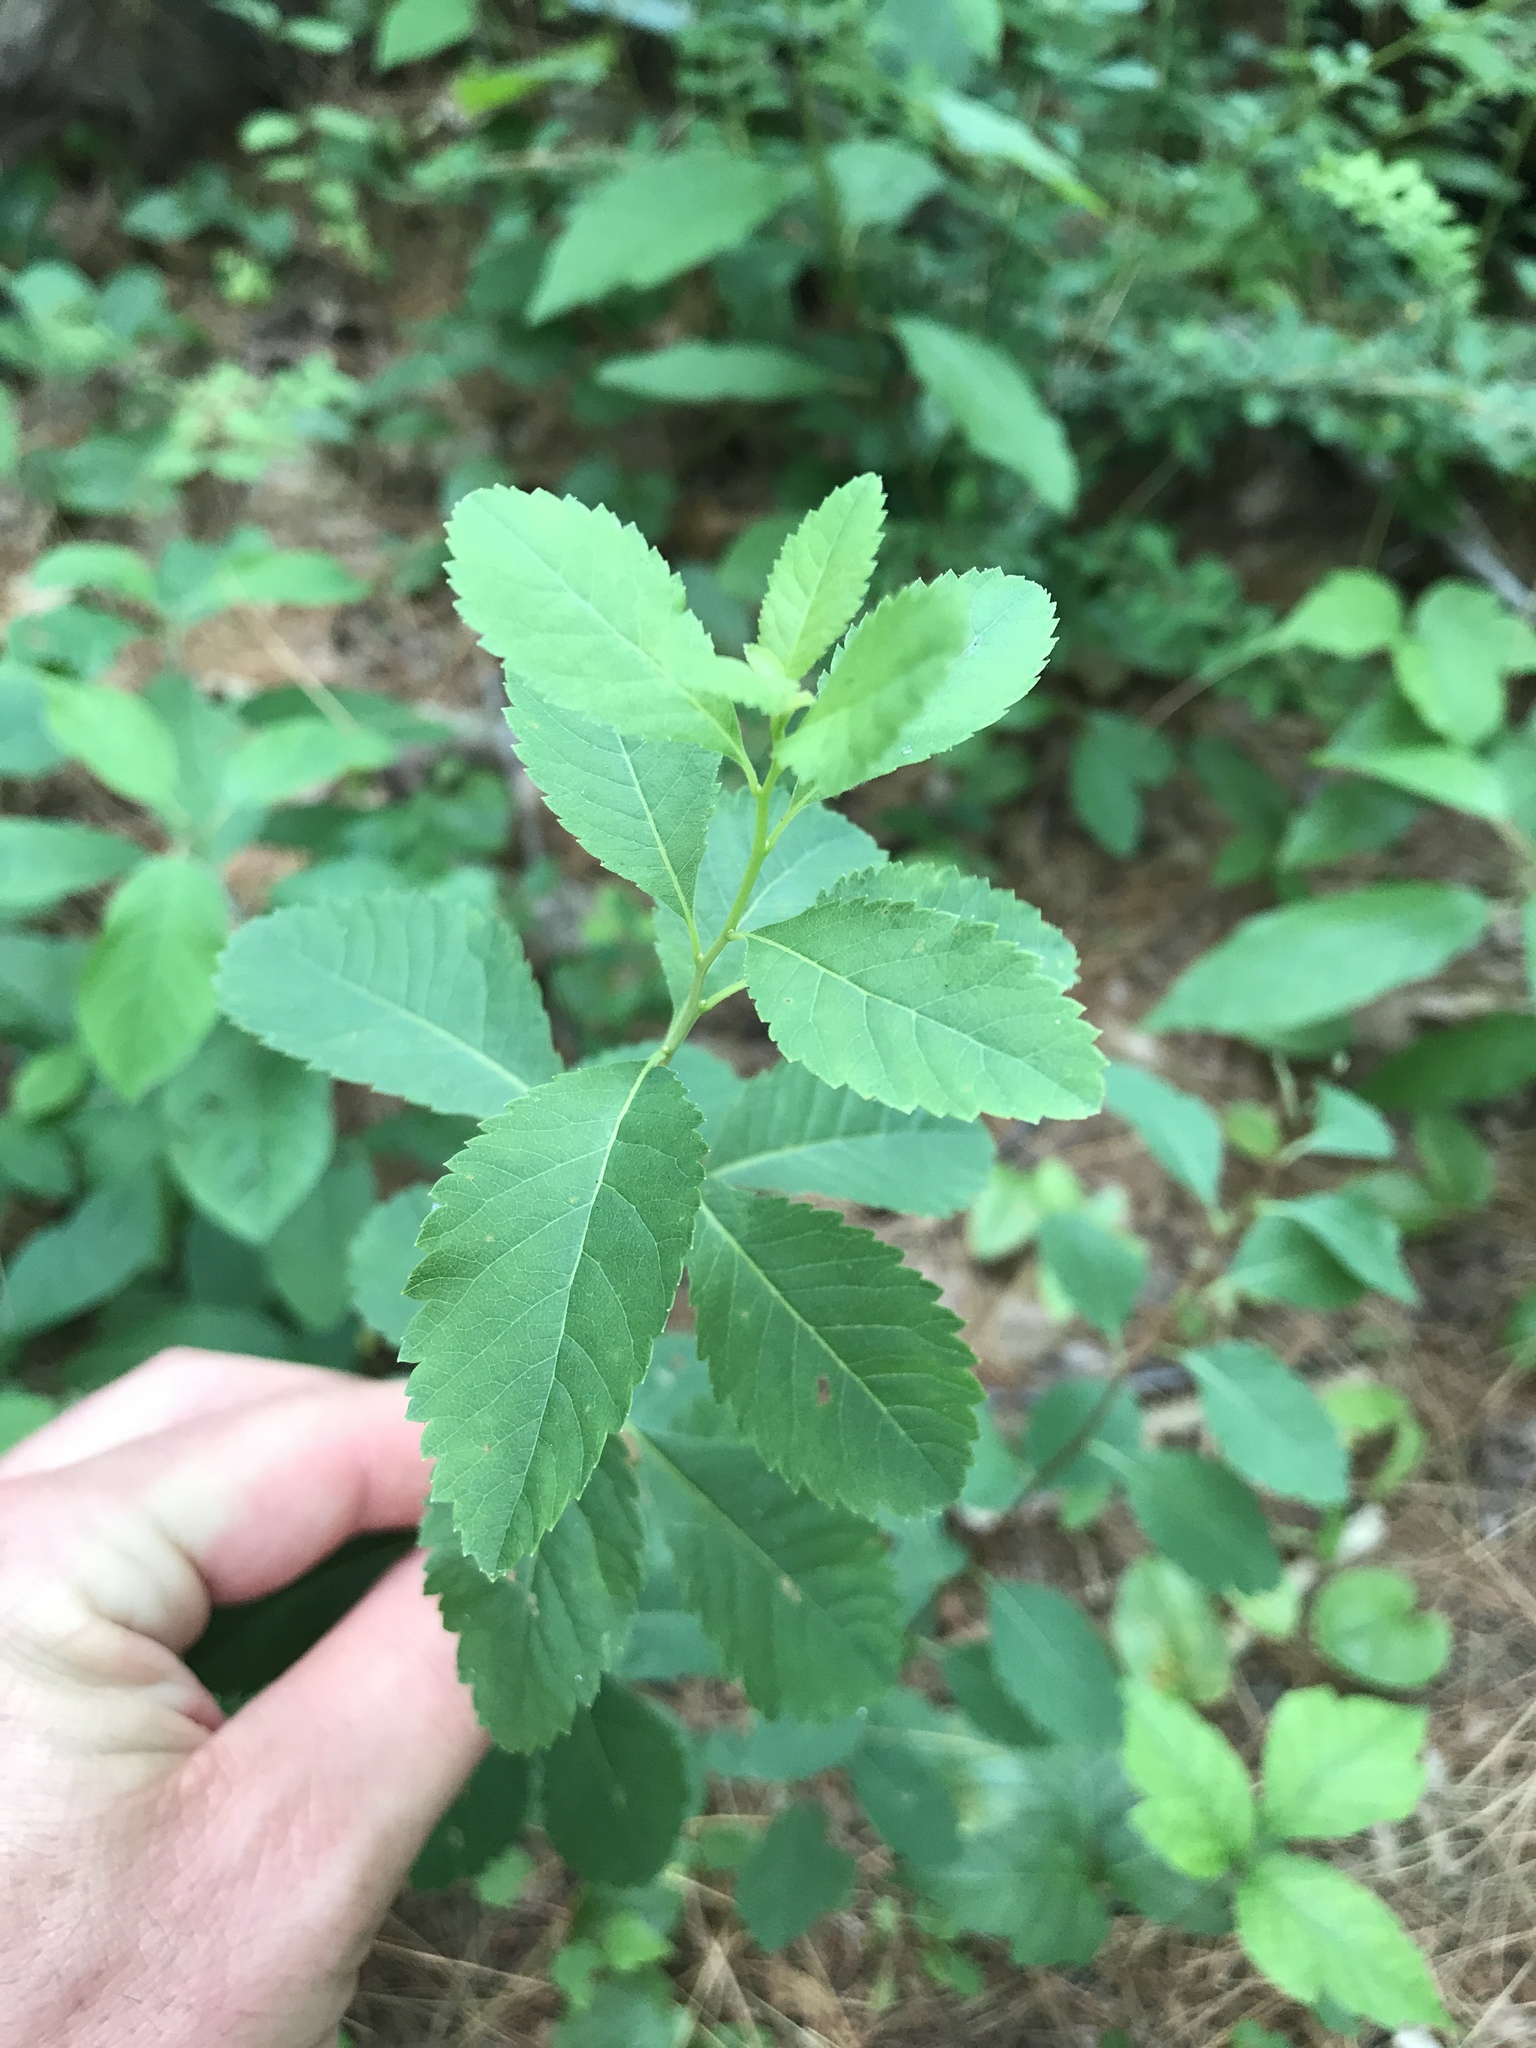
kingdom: Plantae
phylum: Tracheophyta
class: Magnoliopsida
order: Rosales
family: Rosaceae
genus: Spiraea
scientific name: Spiraea alba
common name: Pale bridewort
